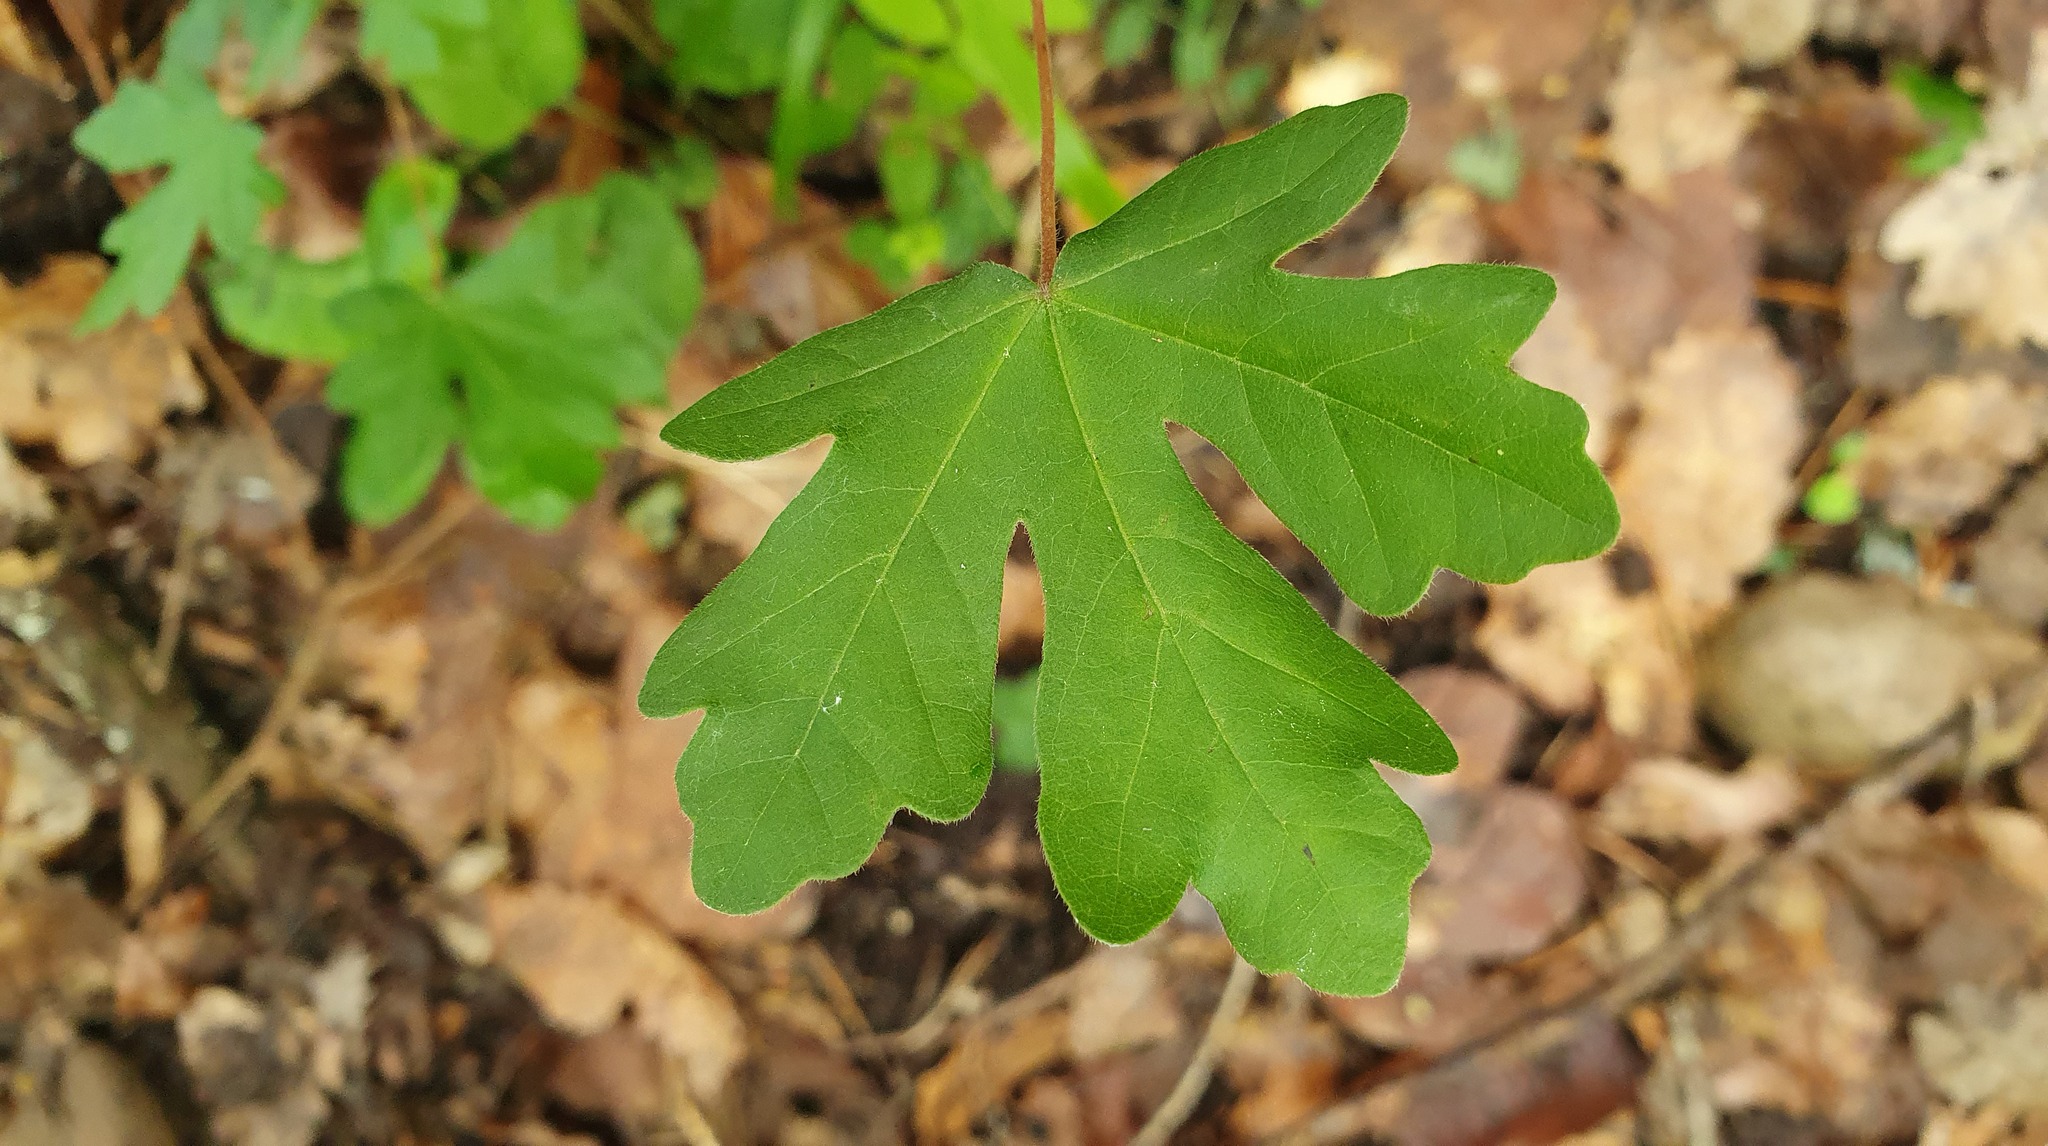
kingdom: Plantae
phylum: Tracheophyta
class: Magnoliopsida
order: Sapindales
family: Sapindaceae
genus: Acer
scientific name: Acer campestre
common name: Field maple
